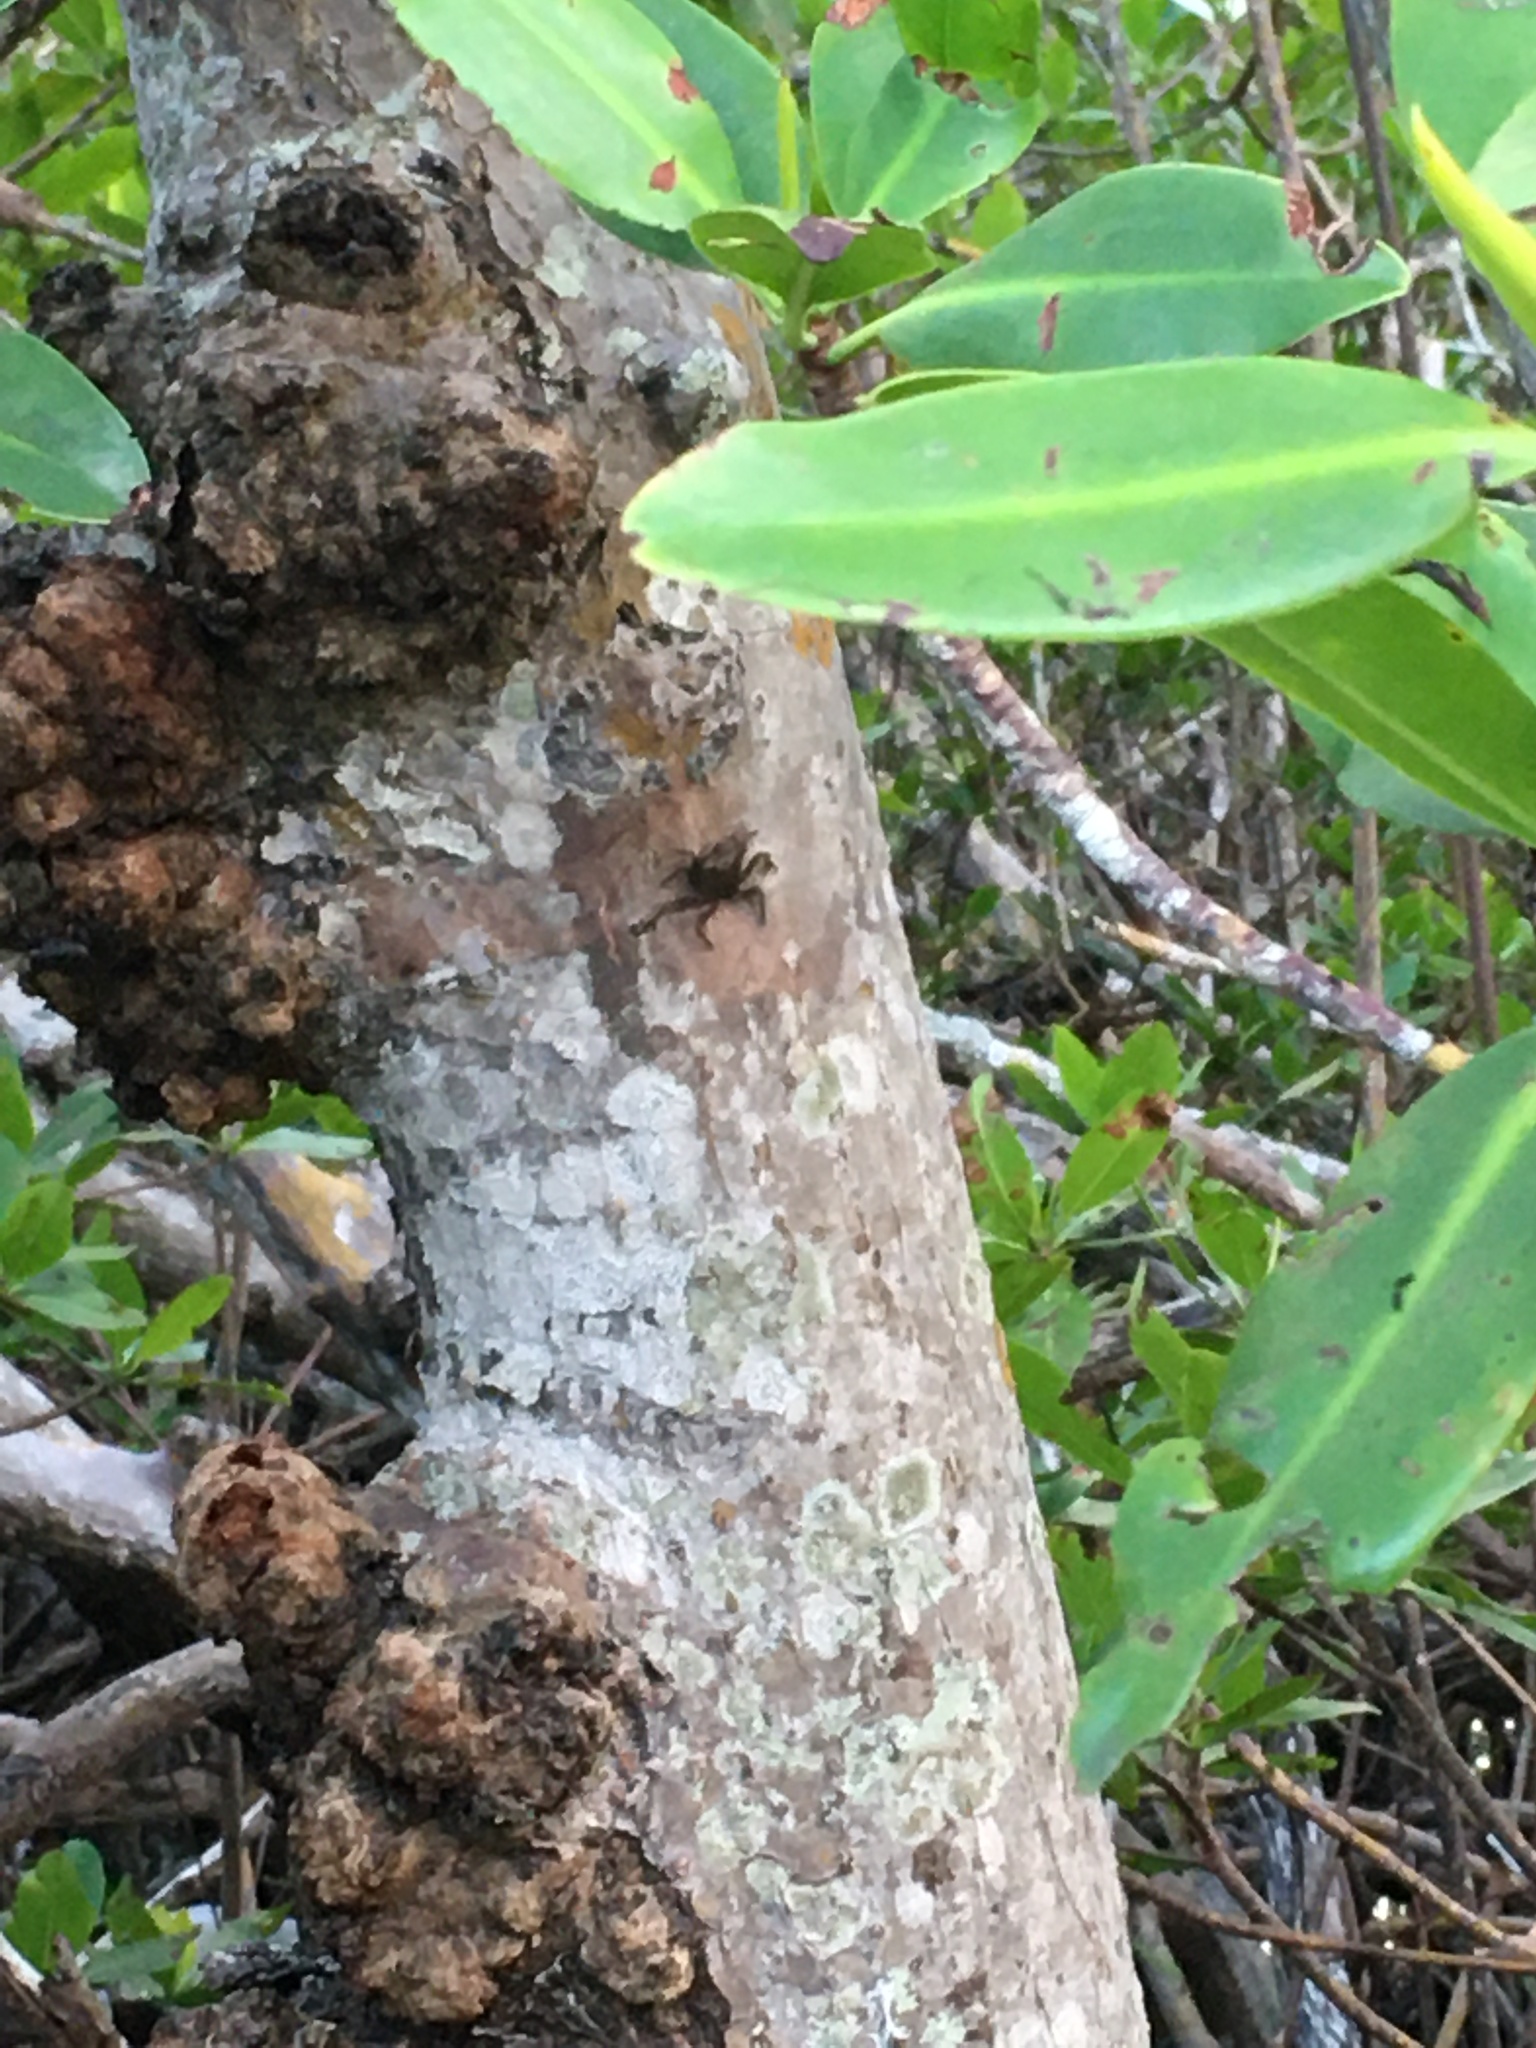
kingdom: Animalia
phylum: Arthropoda
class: Malacostraca
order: Decapoda
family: Sesarmidae
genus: Aratus
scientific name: Aratus pisonii
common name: Mangrove crab
